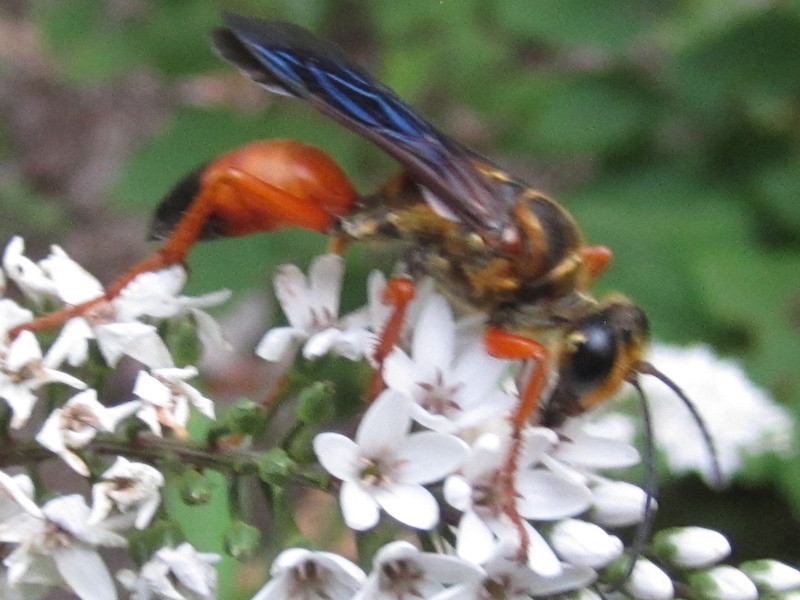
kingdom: Animalia
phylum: Arthropoda
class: Insecta
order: Hymenoptera
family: Sphecidae
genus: Sphex
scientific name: Sphex ichneumoneus
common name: Great golden digger wasp
